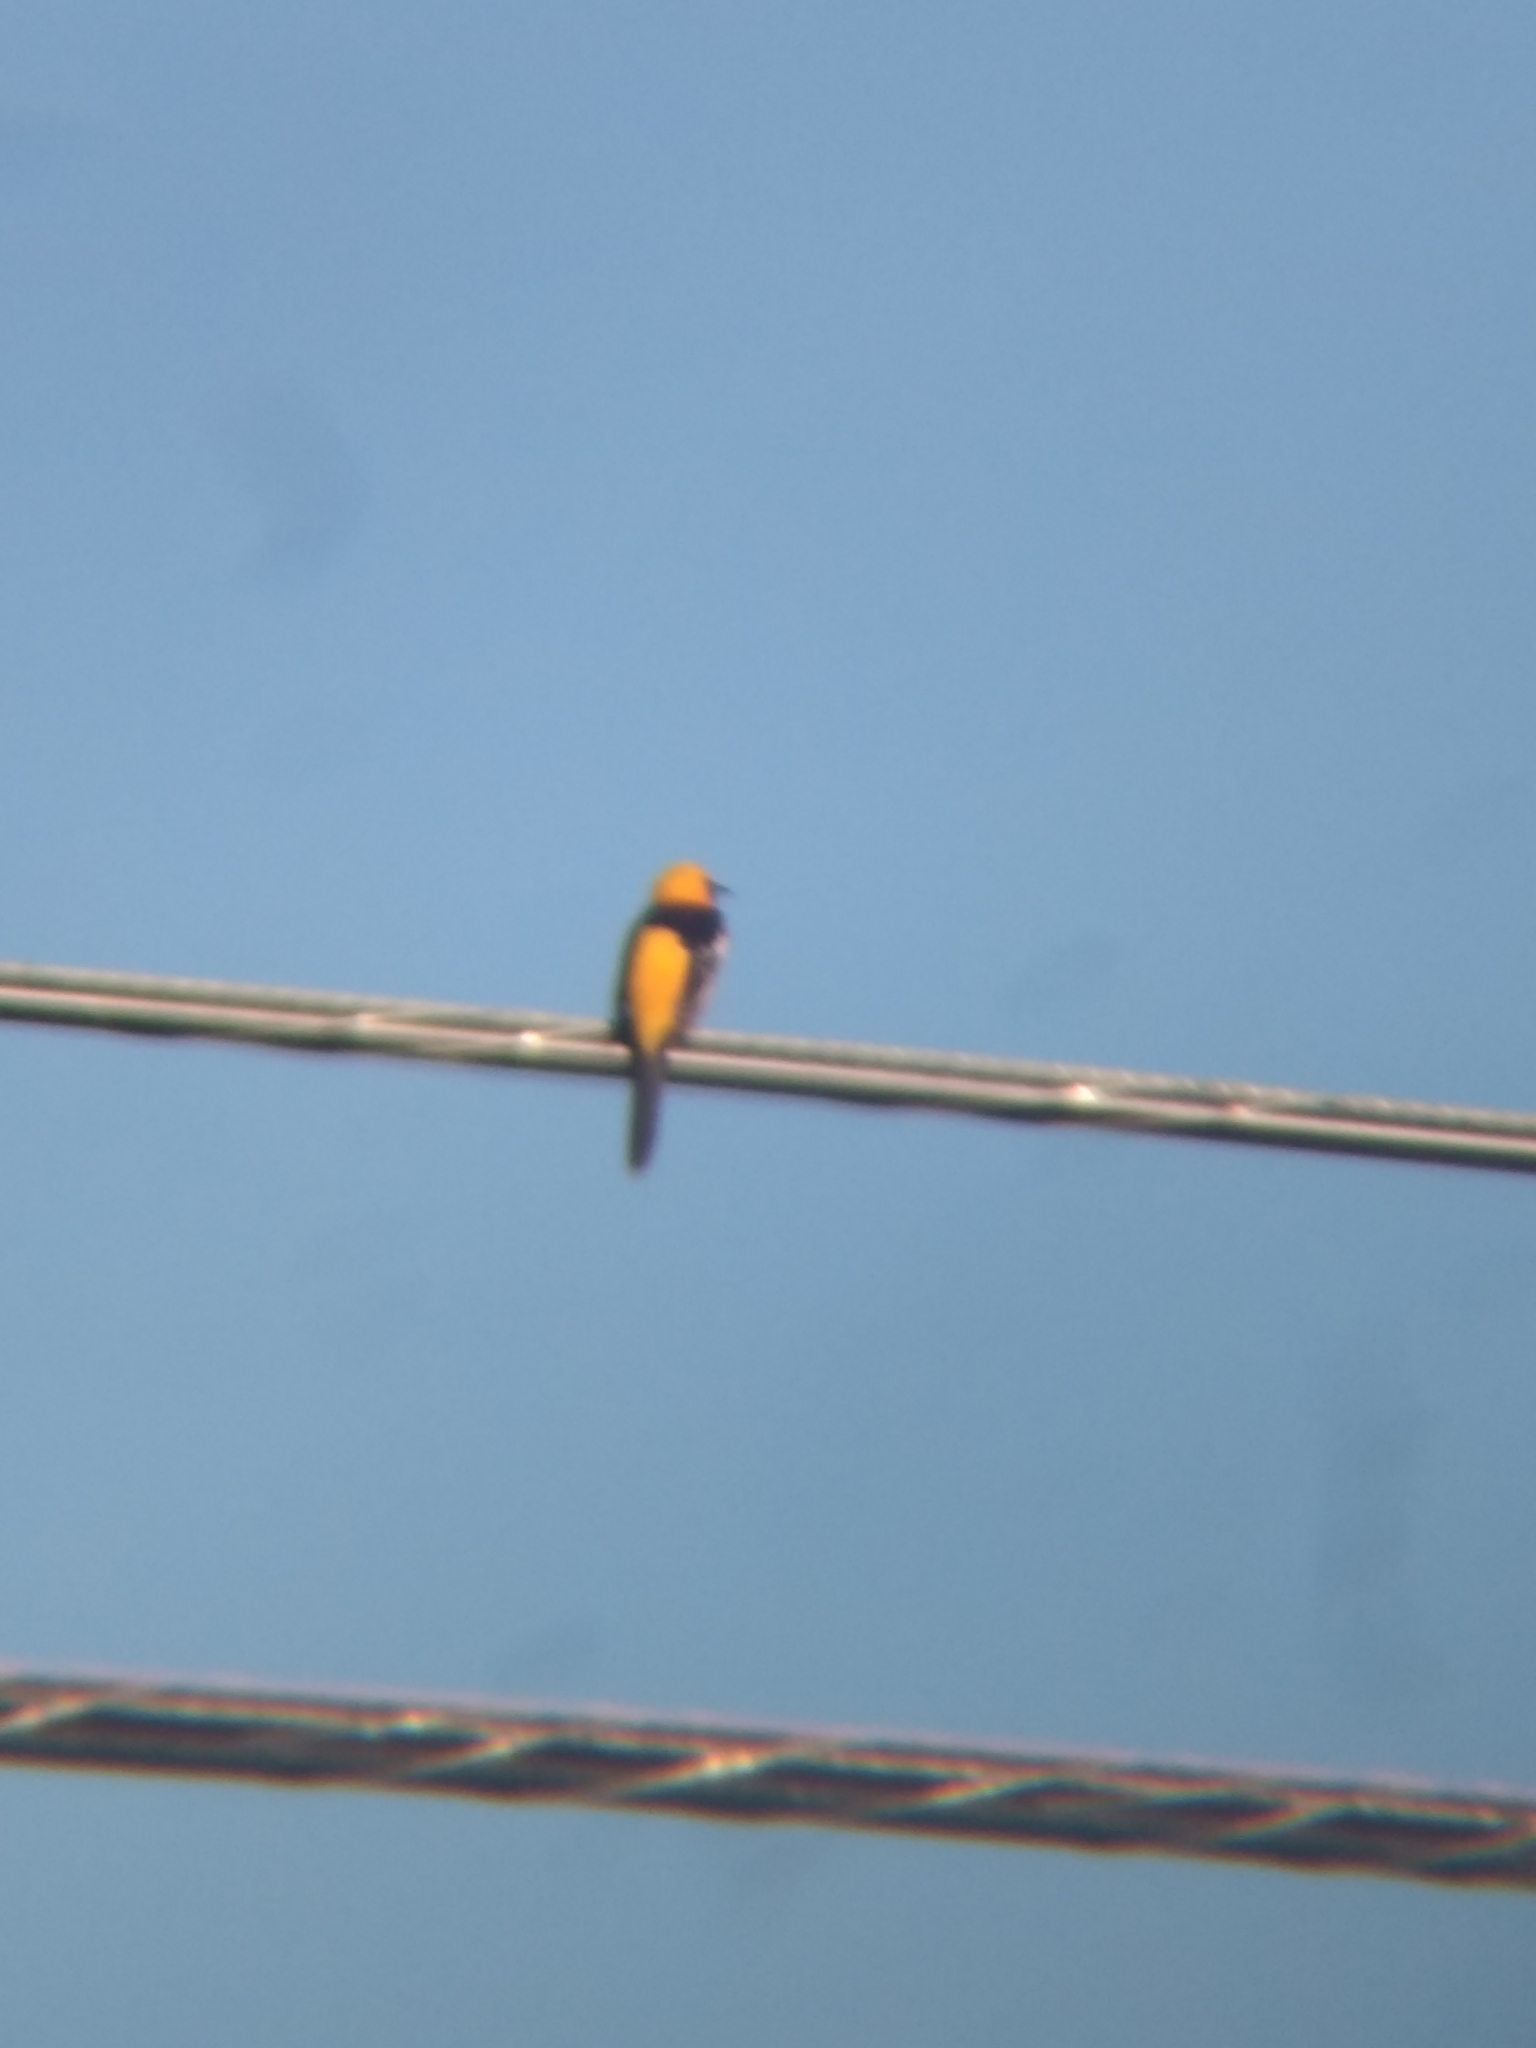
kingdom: Animalia
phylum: Chordata
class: Aves
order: Passeriformes
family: Icteridae
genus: Icterus
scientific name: Icterus cucullatus
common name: Hooded oriole
